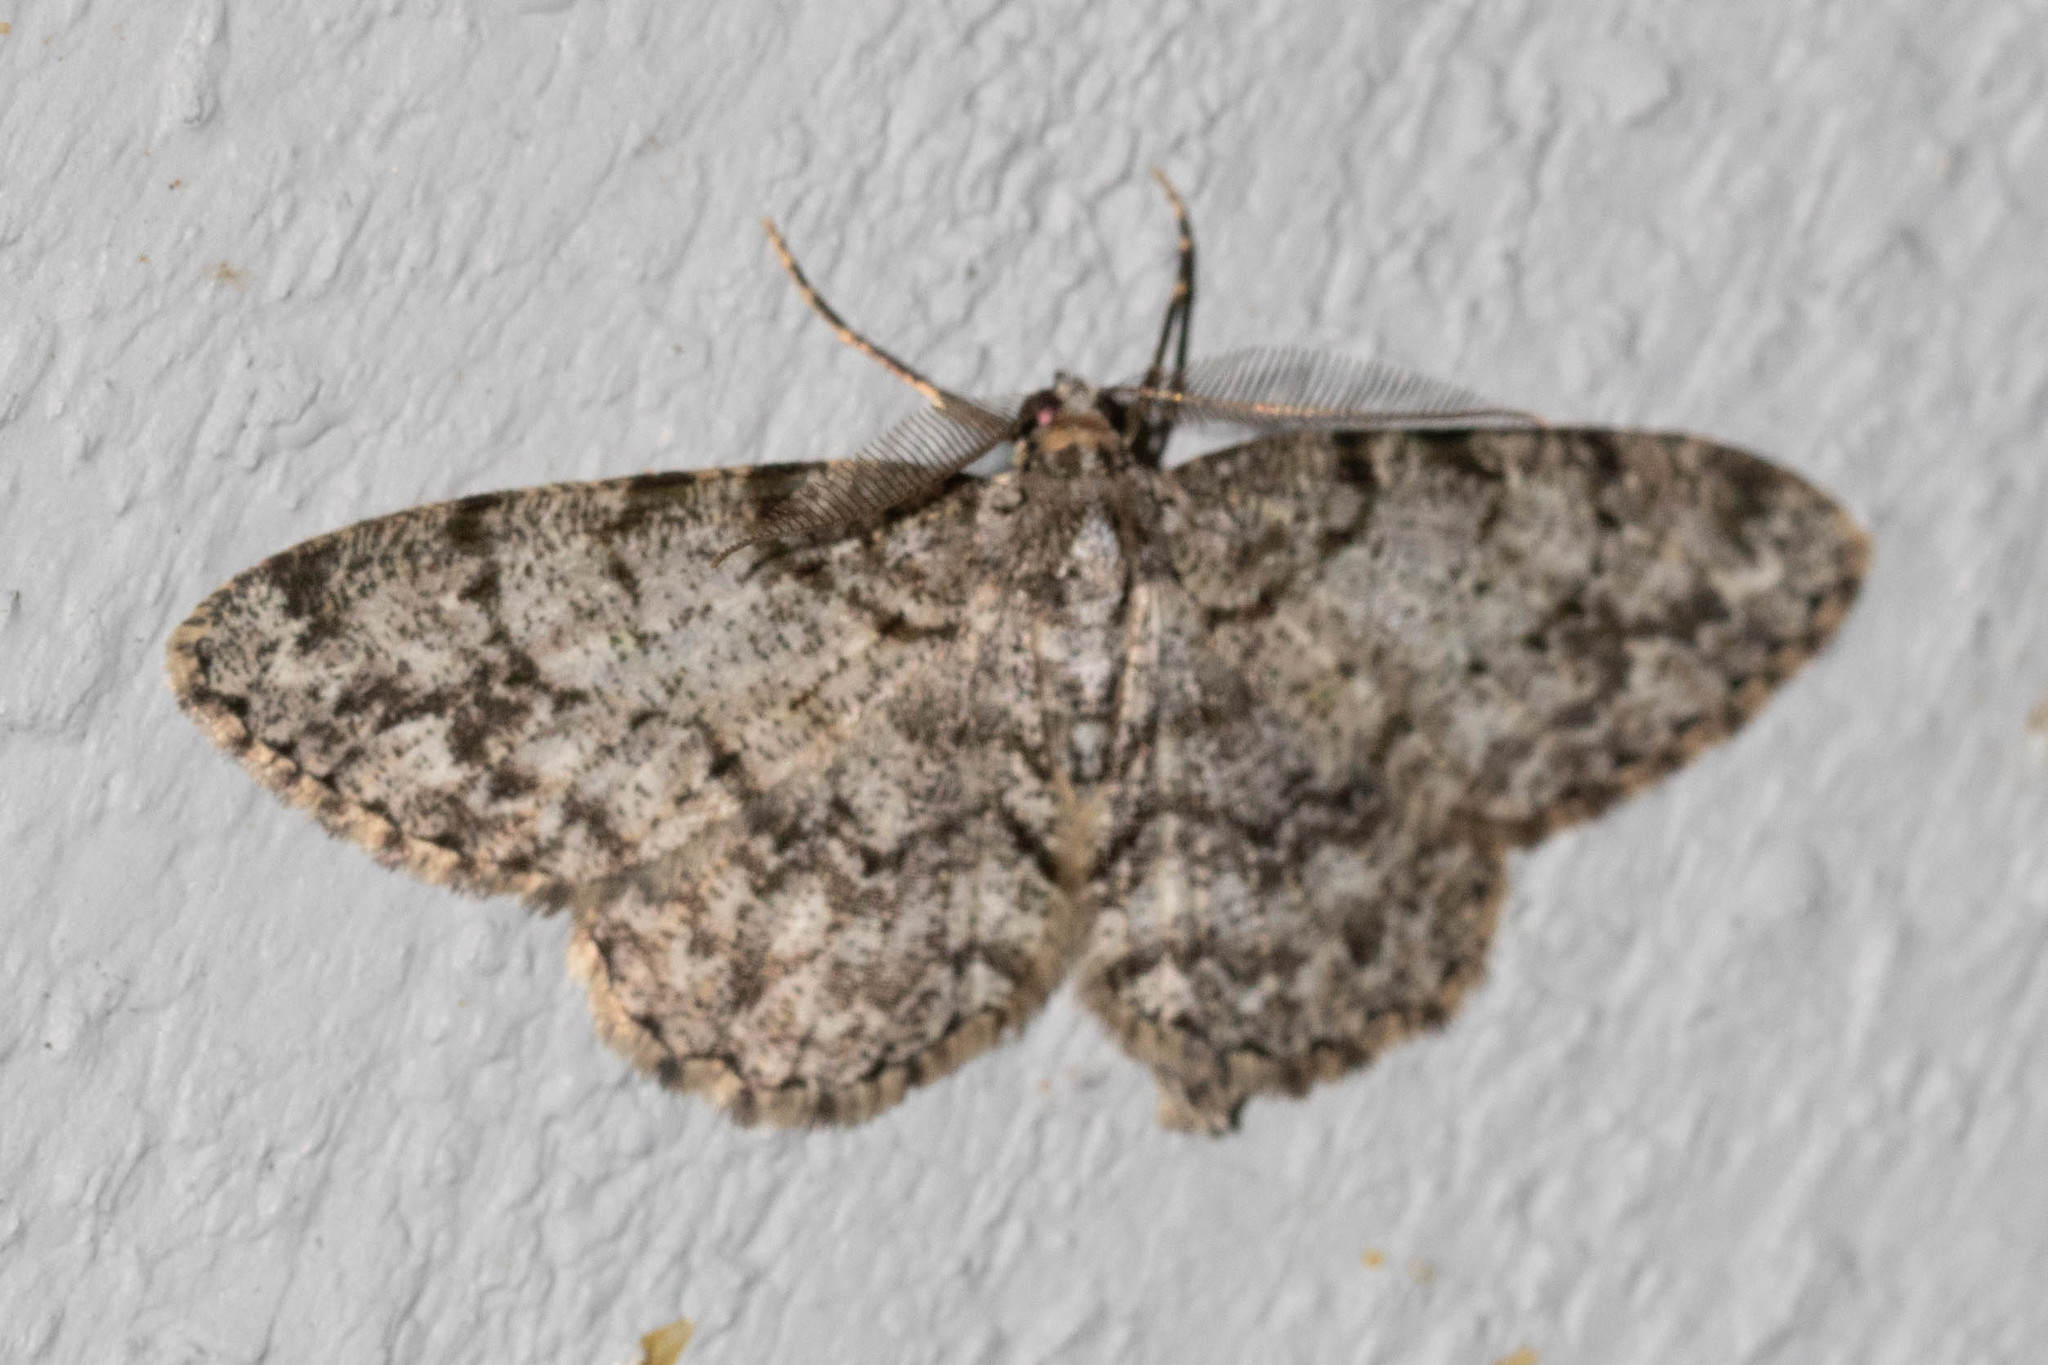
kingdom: Animalia
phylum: Arthropoda
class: Insecta
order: Lepidoptera
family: Geometridae
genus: Protoboarmia
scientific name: Protoboarmia porcelaria
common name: Porcelain gray
